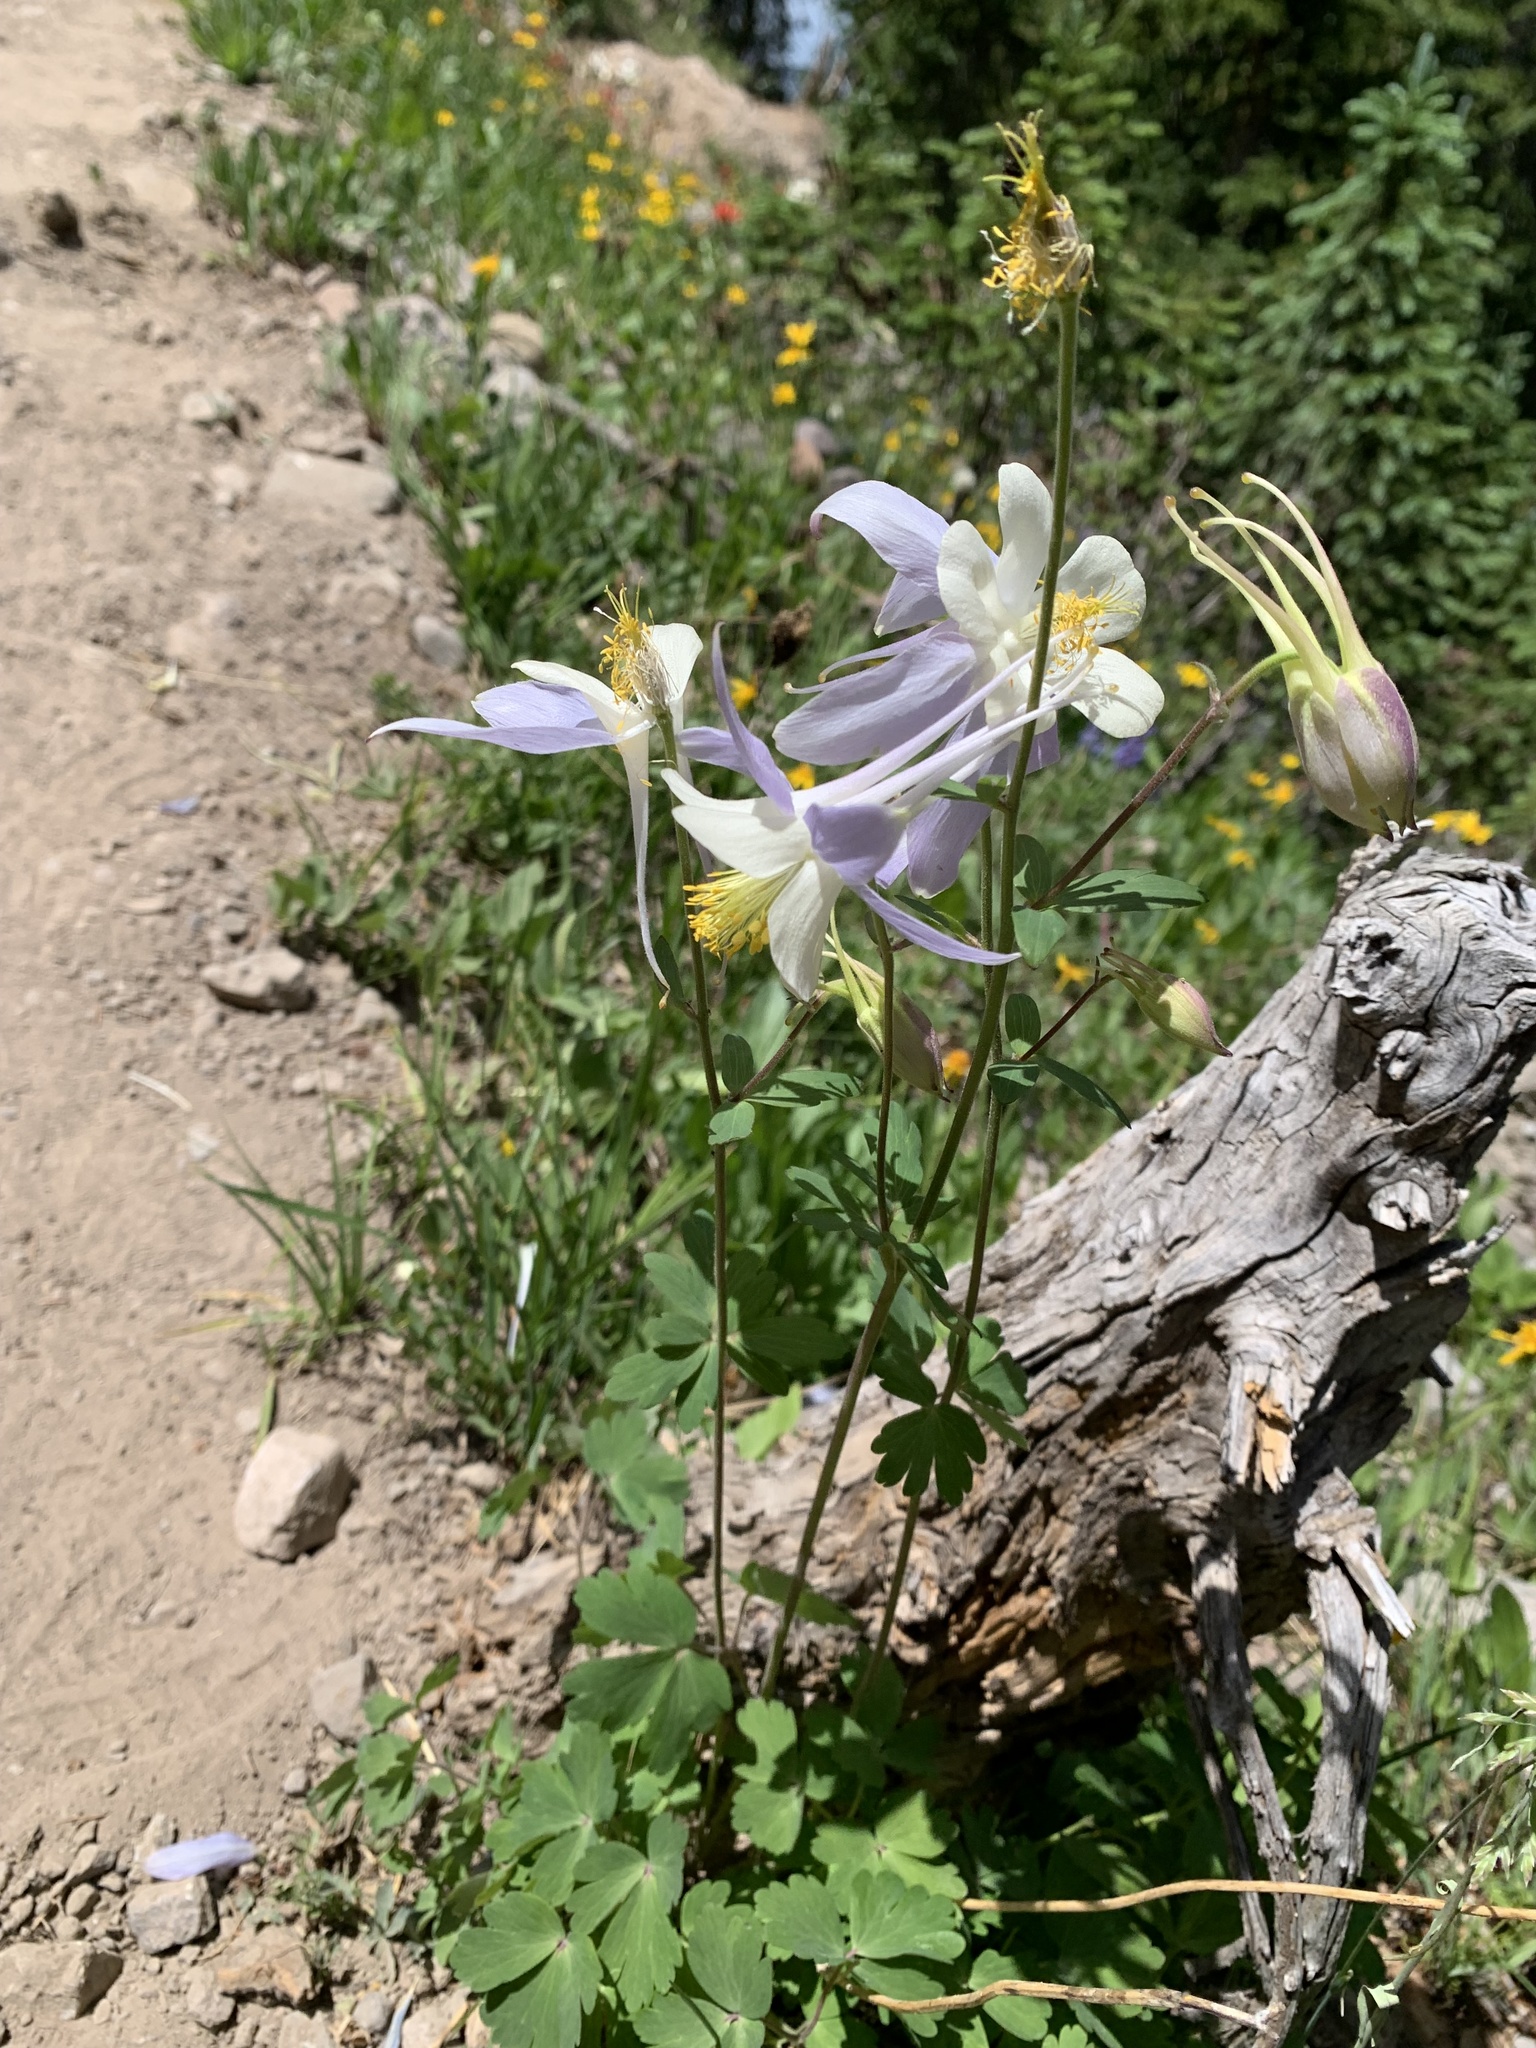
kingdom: Plantae
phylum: Tracheophyta
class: Magnoliopsida
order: Ranunculales
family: Ranunculaceae
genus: Aquilegia
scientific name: Aquilegia coerulea
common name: Rocky mountain columbine
